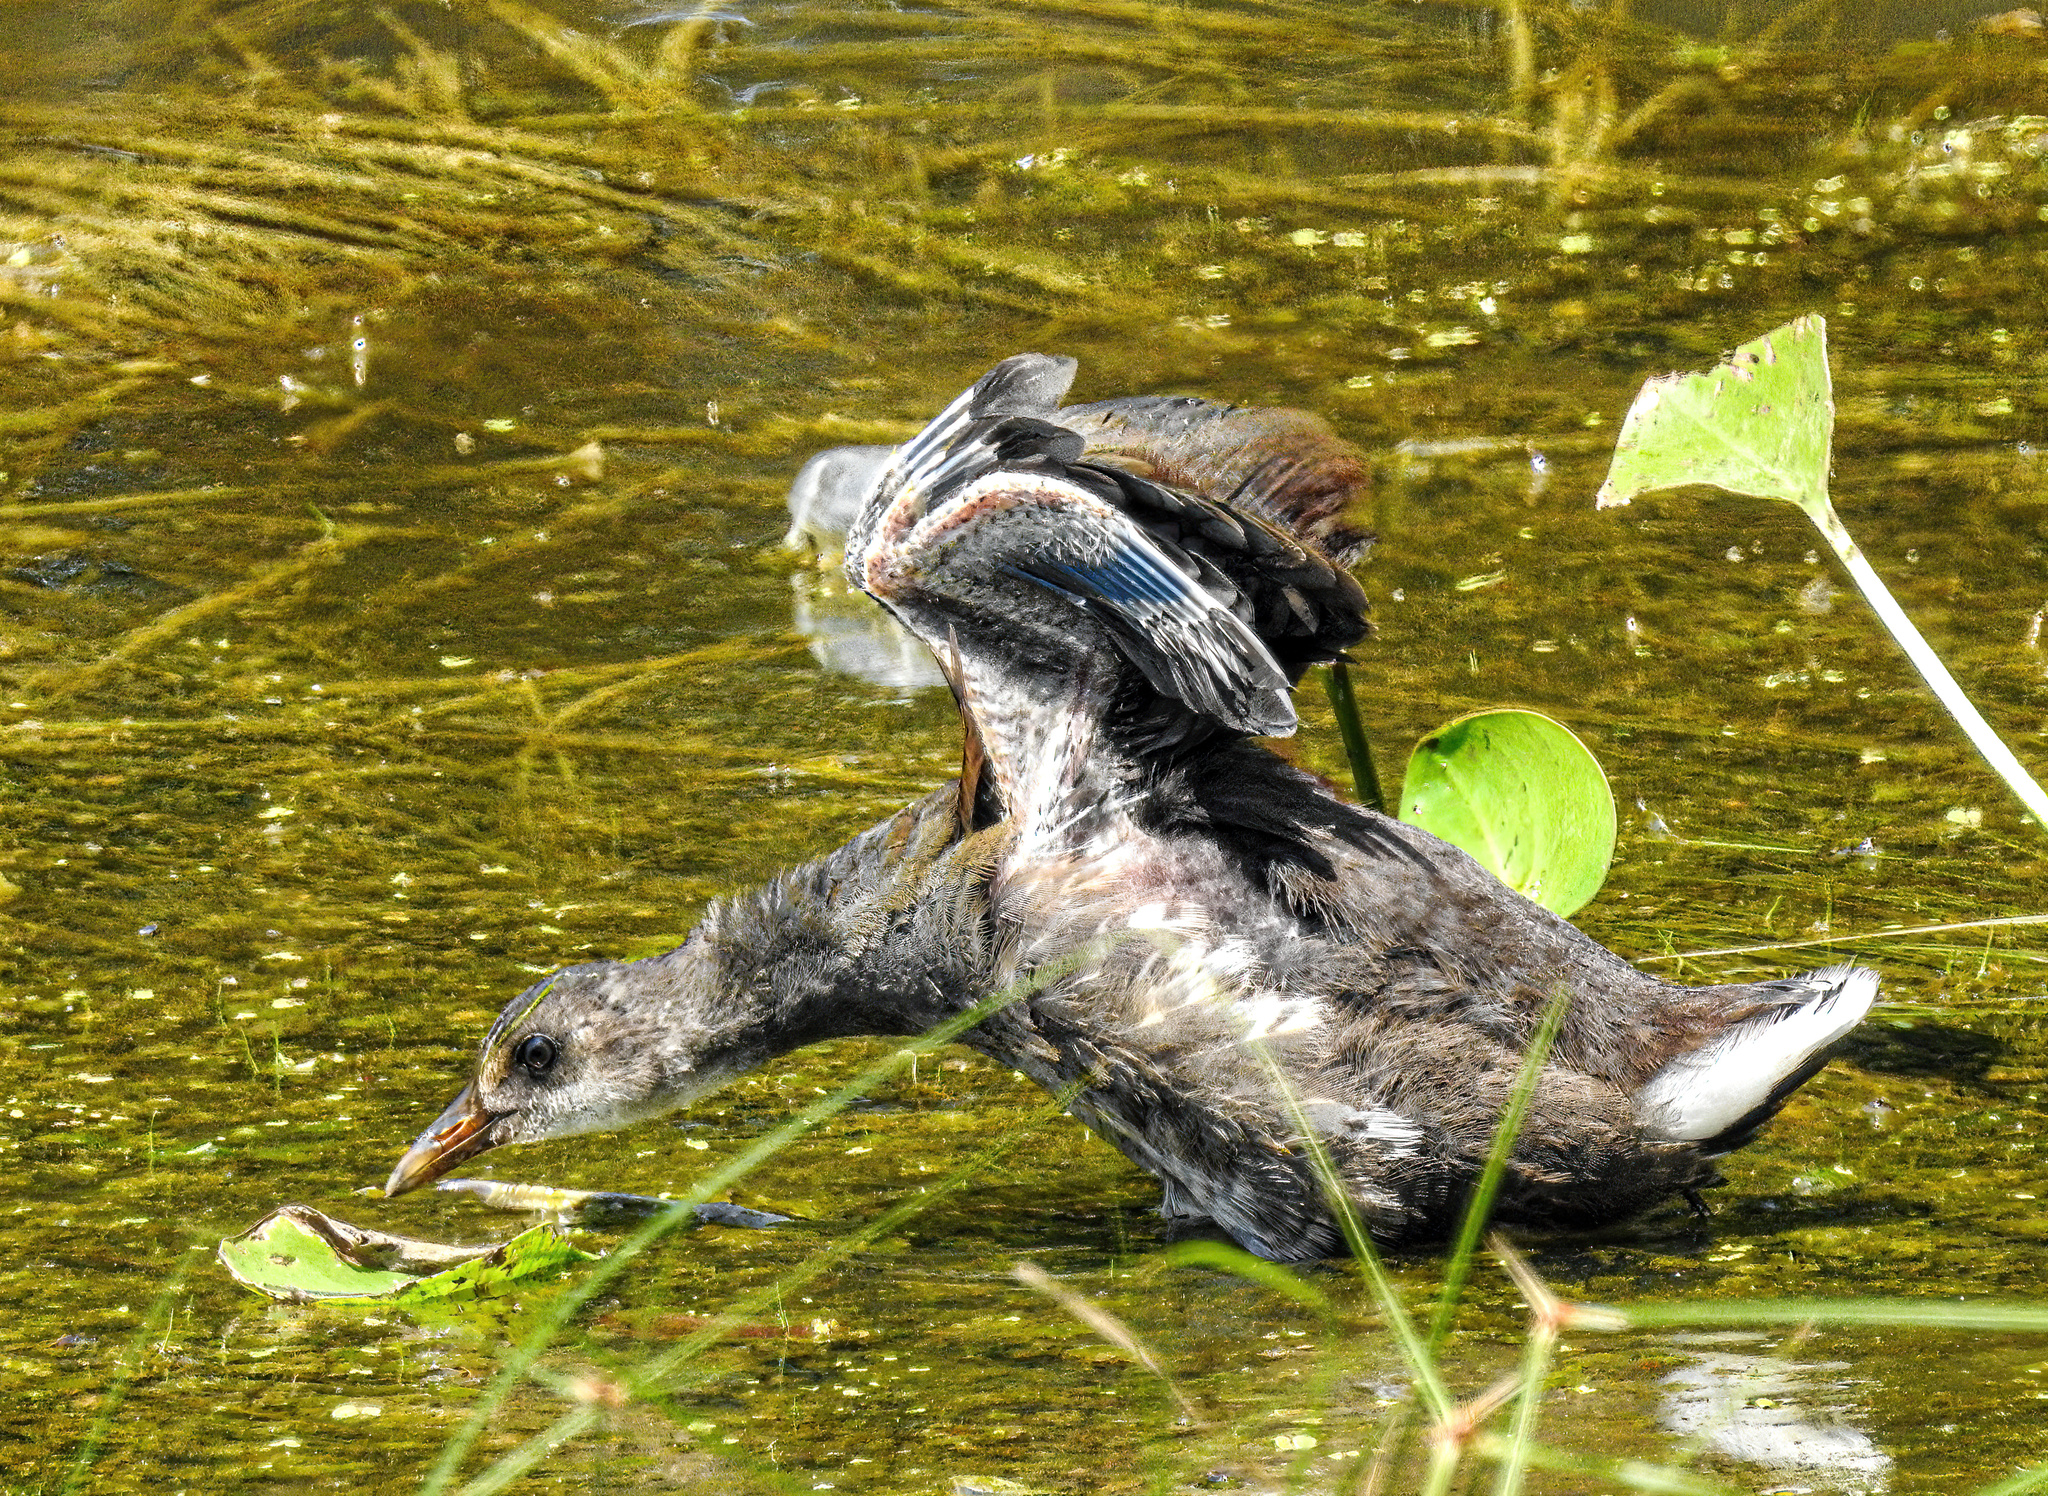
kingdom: Animalia
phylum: Chordata
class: Aves
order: Gruiformes
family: Rallidae
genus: Gallinula
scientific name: Gallinula chloropus
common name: Common moorhen
